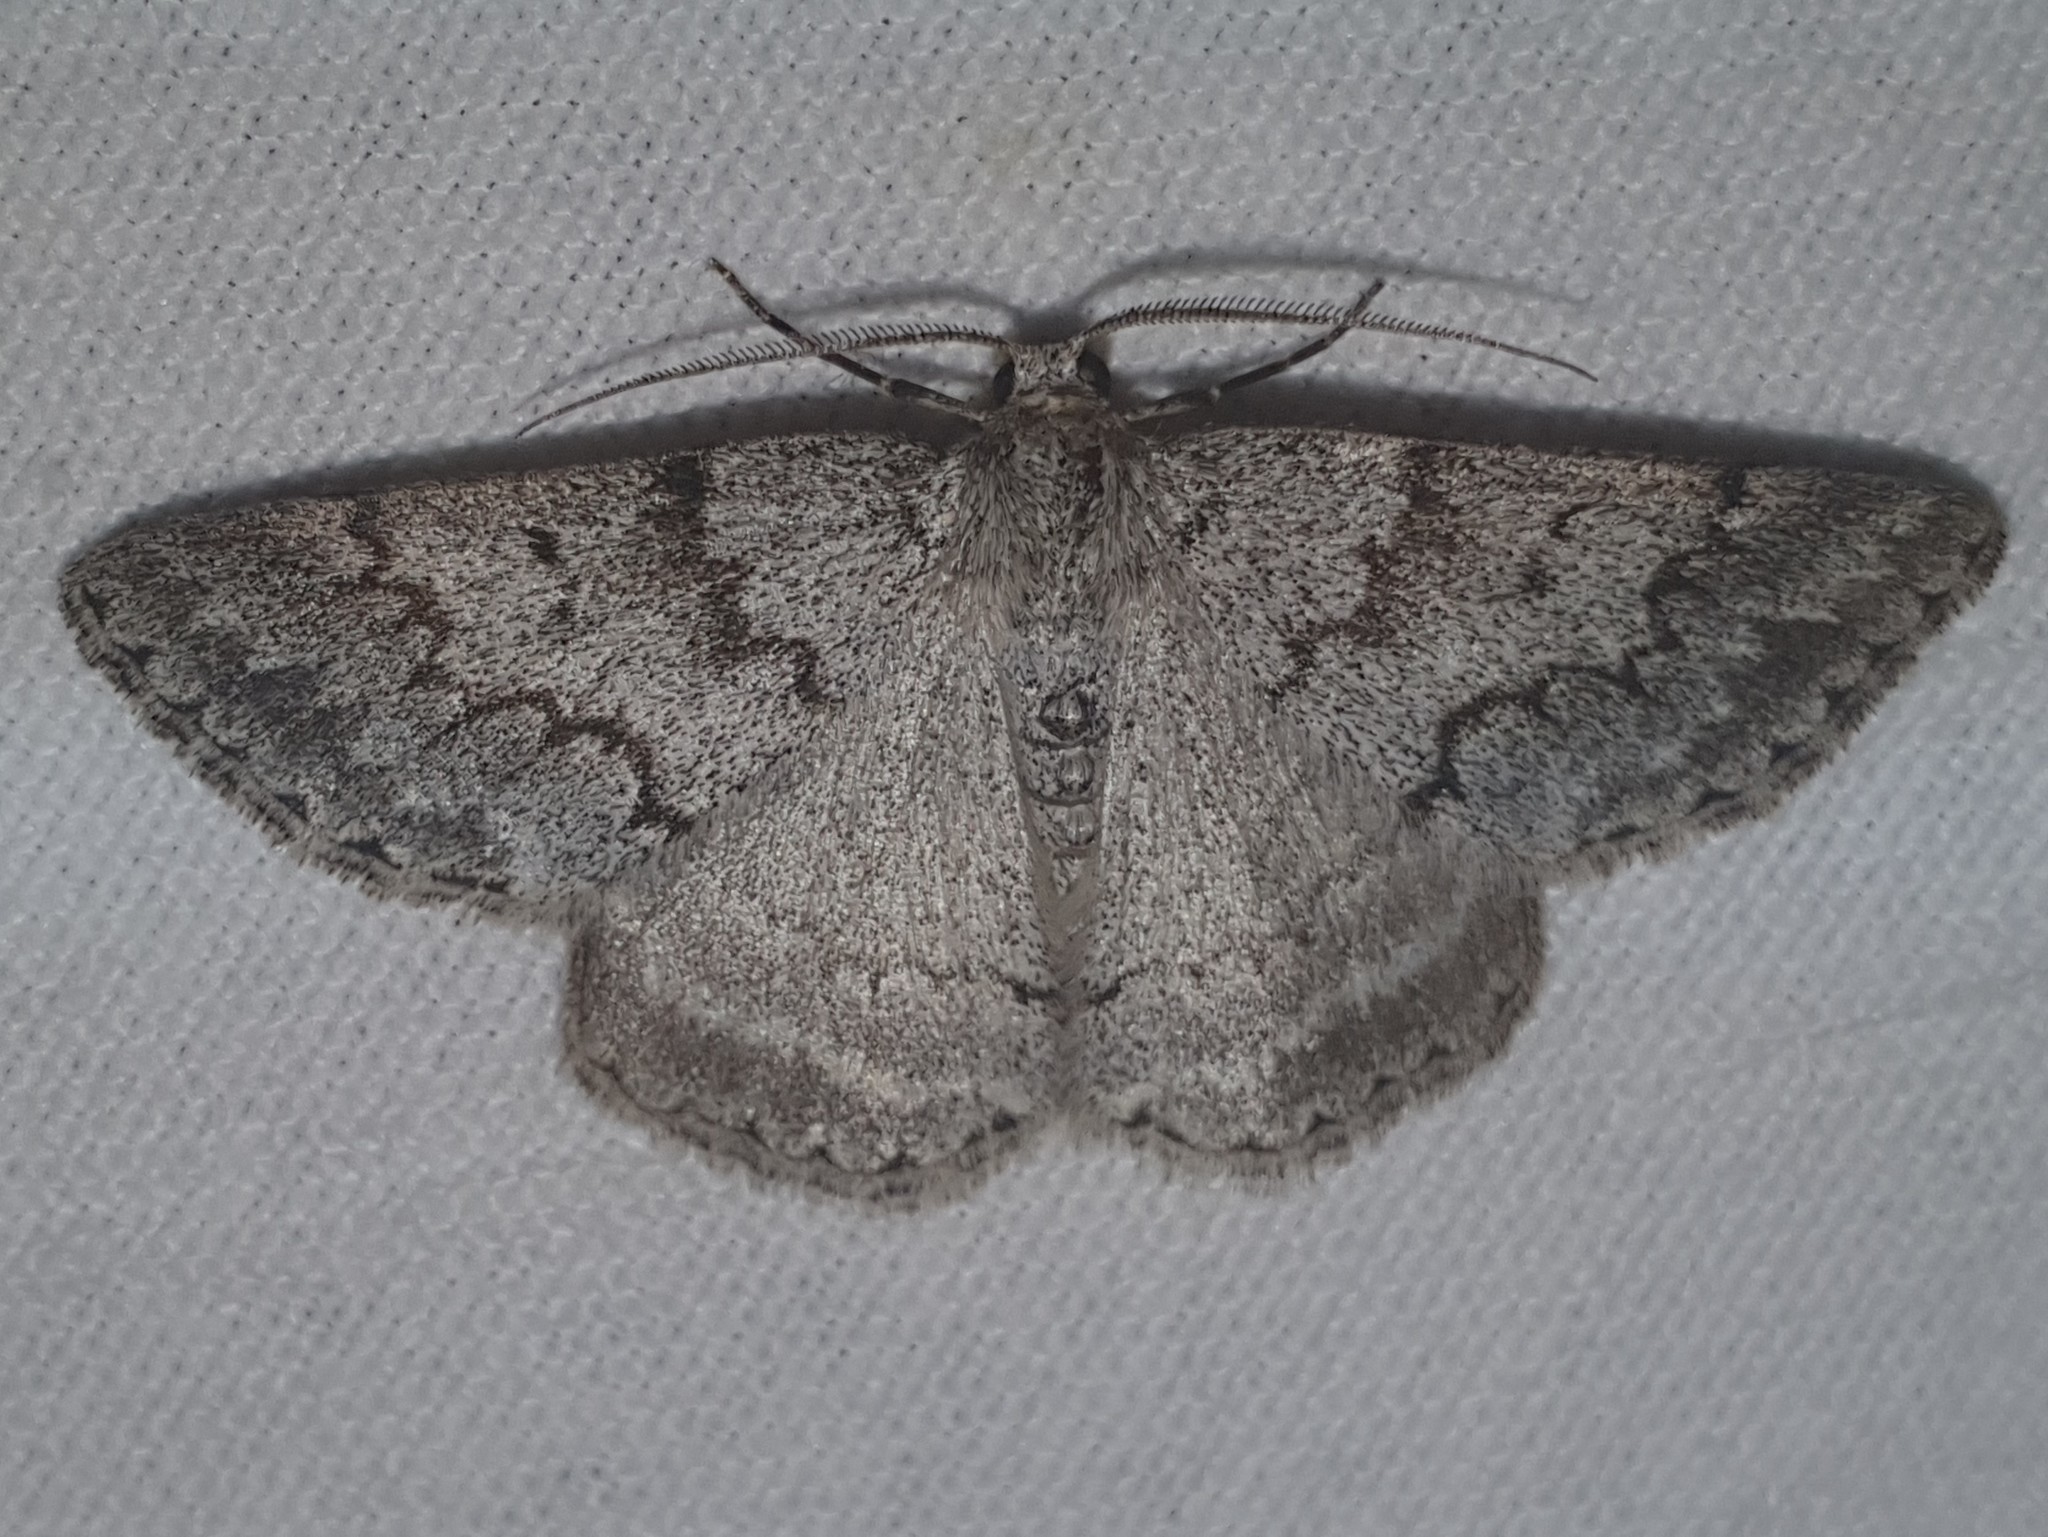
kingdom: Animalia
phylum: Arthropoda
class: Insecta
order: Lepidoptera
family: Geometridae
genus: Pseudoterpna
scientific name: Pseudoterpna coronillaria
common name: Jersey emerald
